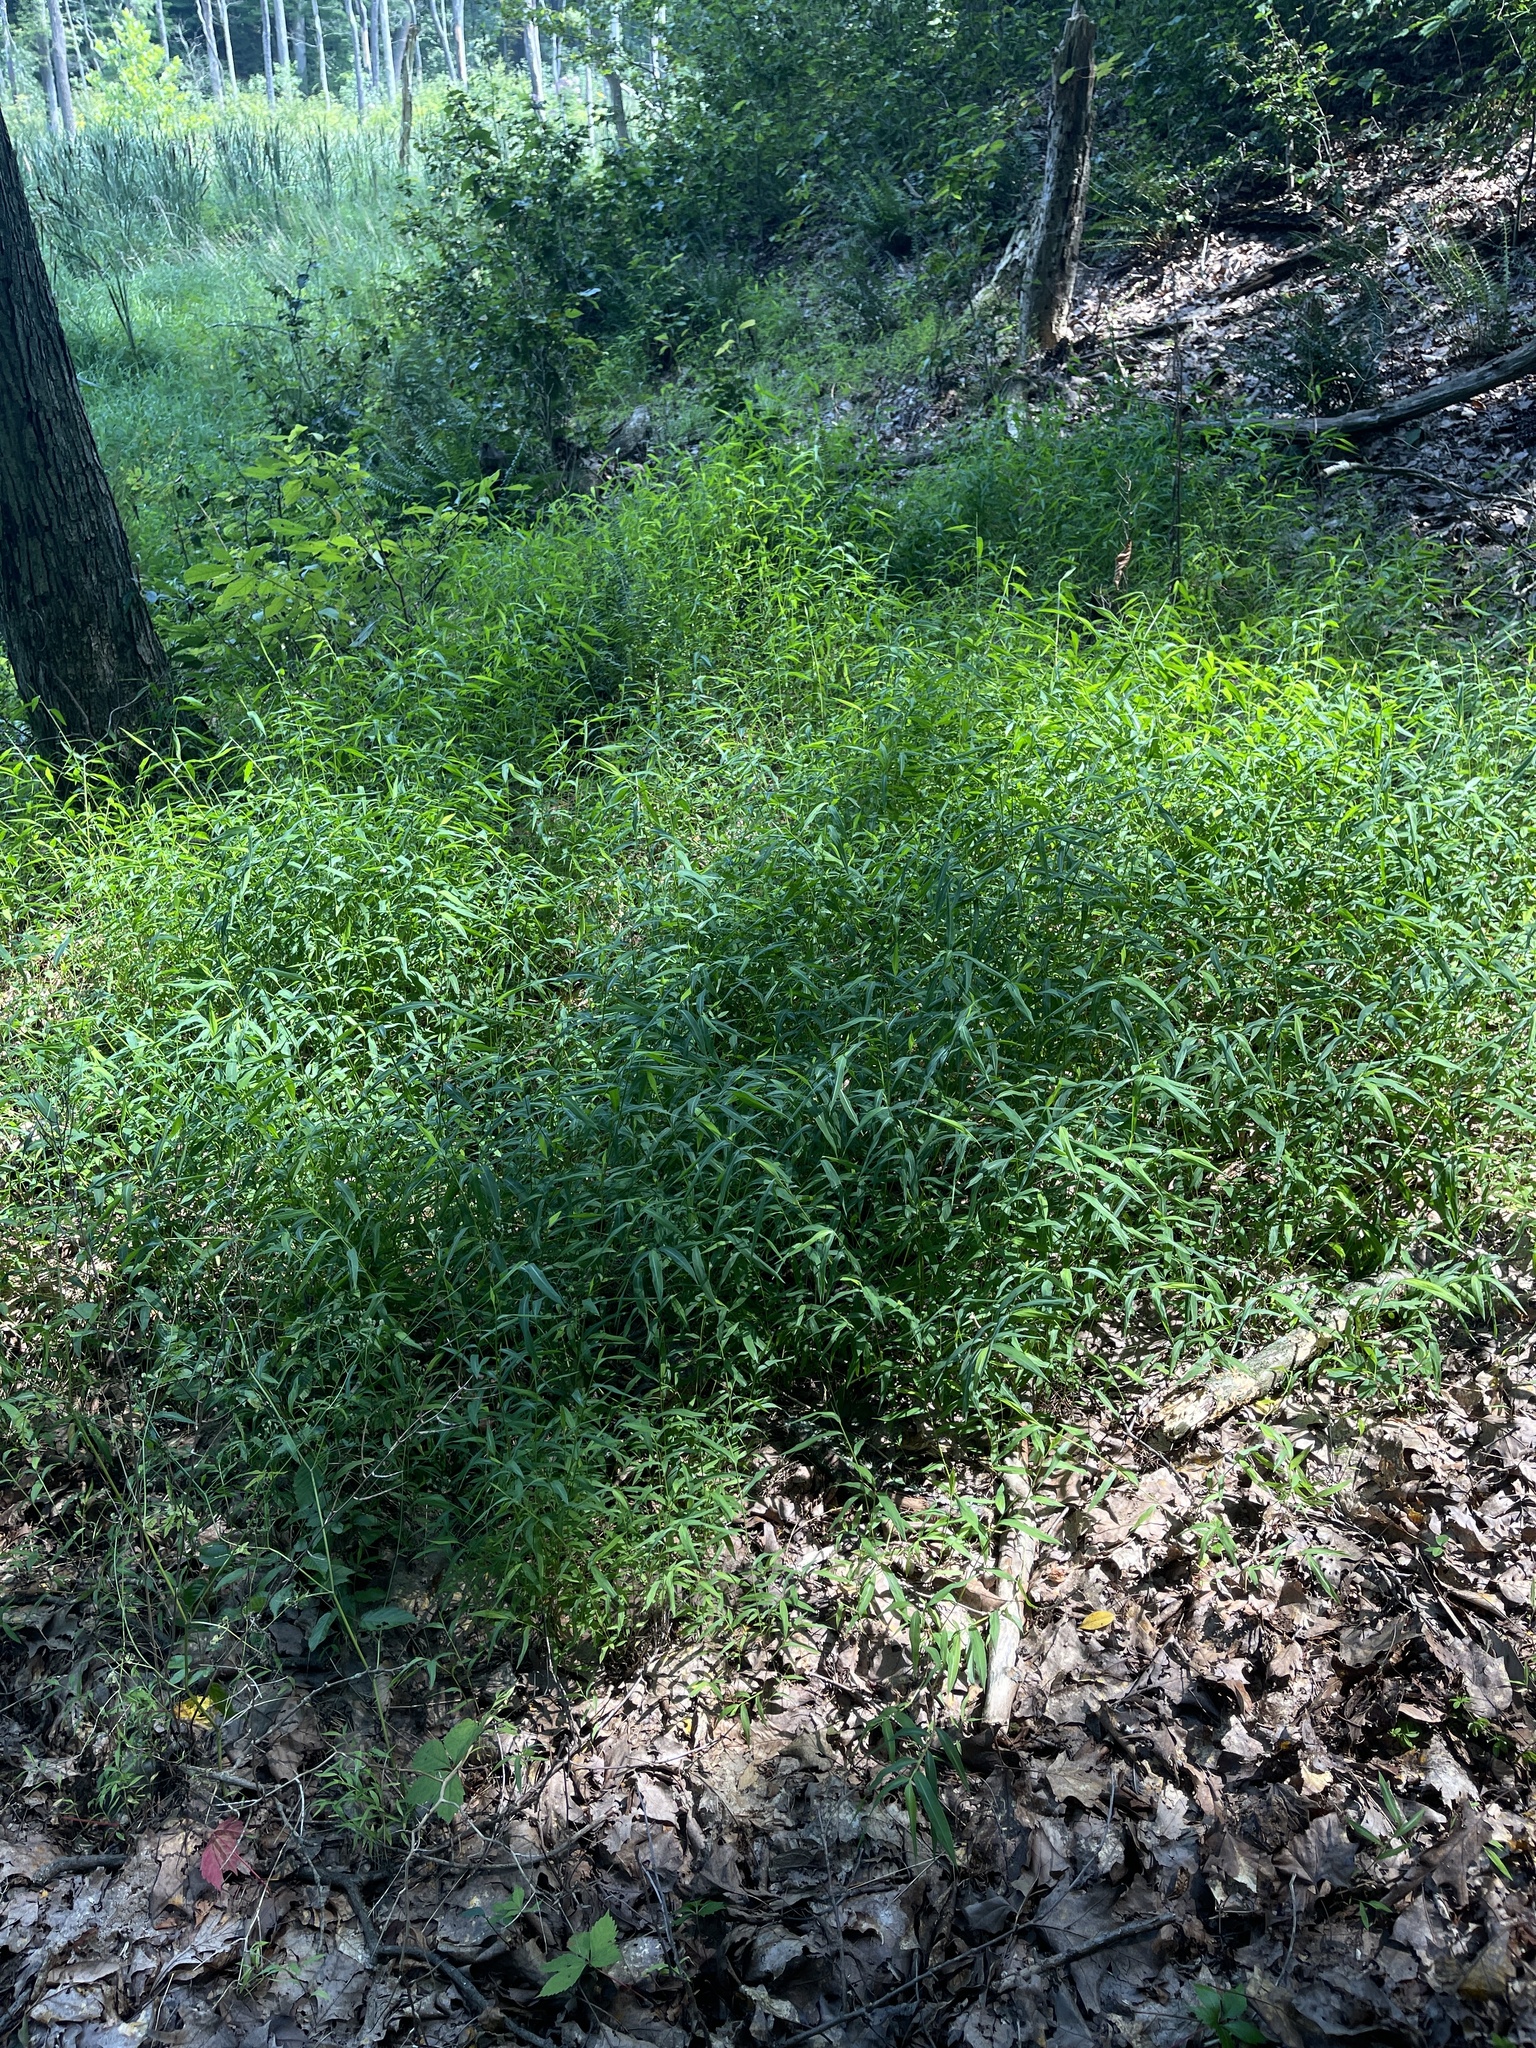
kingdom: Plantae
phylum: Tracheophyta
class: Liliopsida
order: Poales
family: Poaceae
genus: Microstegium
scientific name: Microstegium vimineum
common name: Japanese stiltgrass
